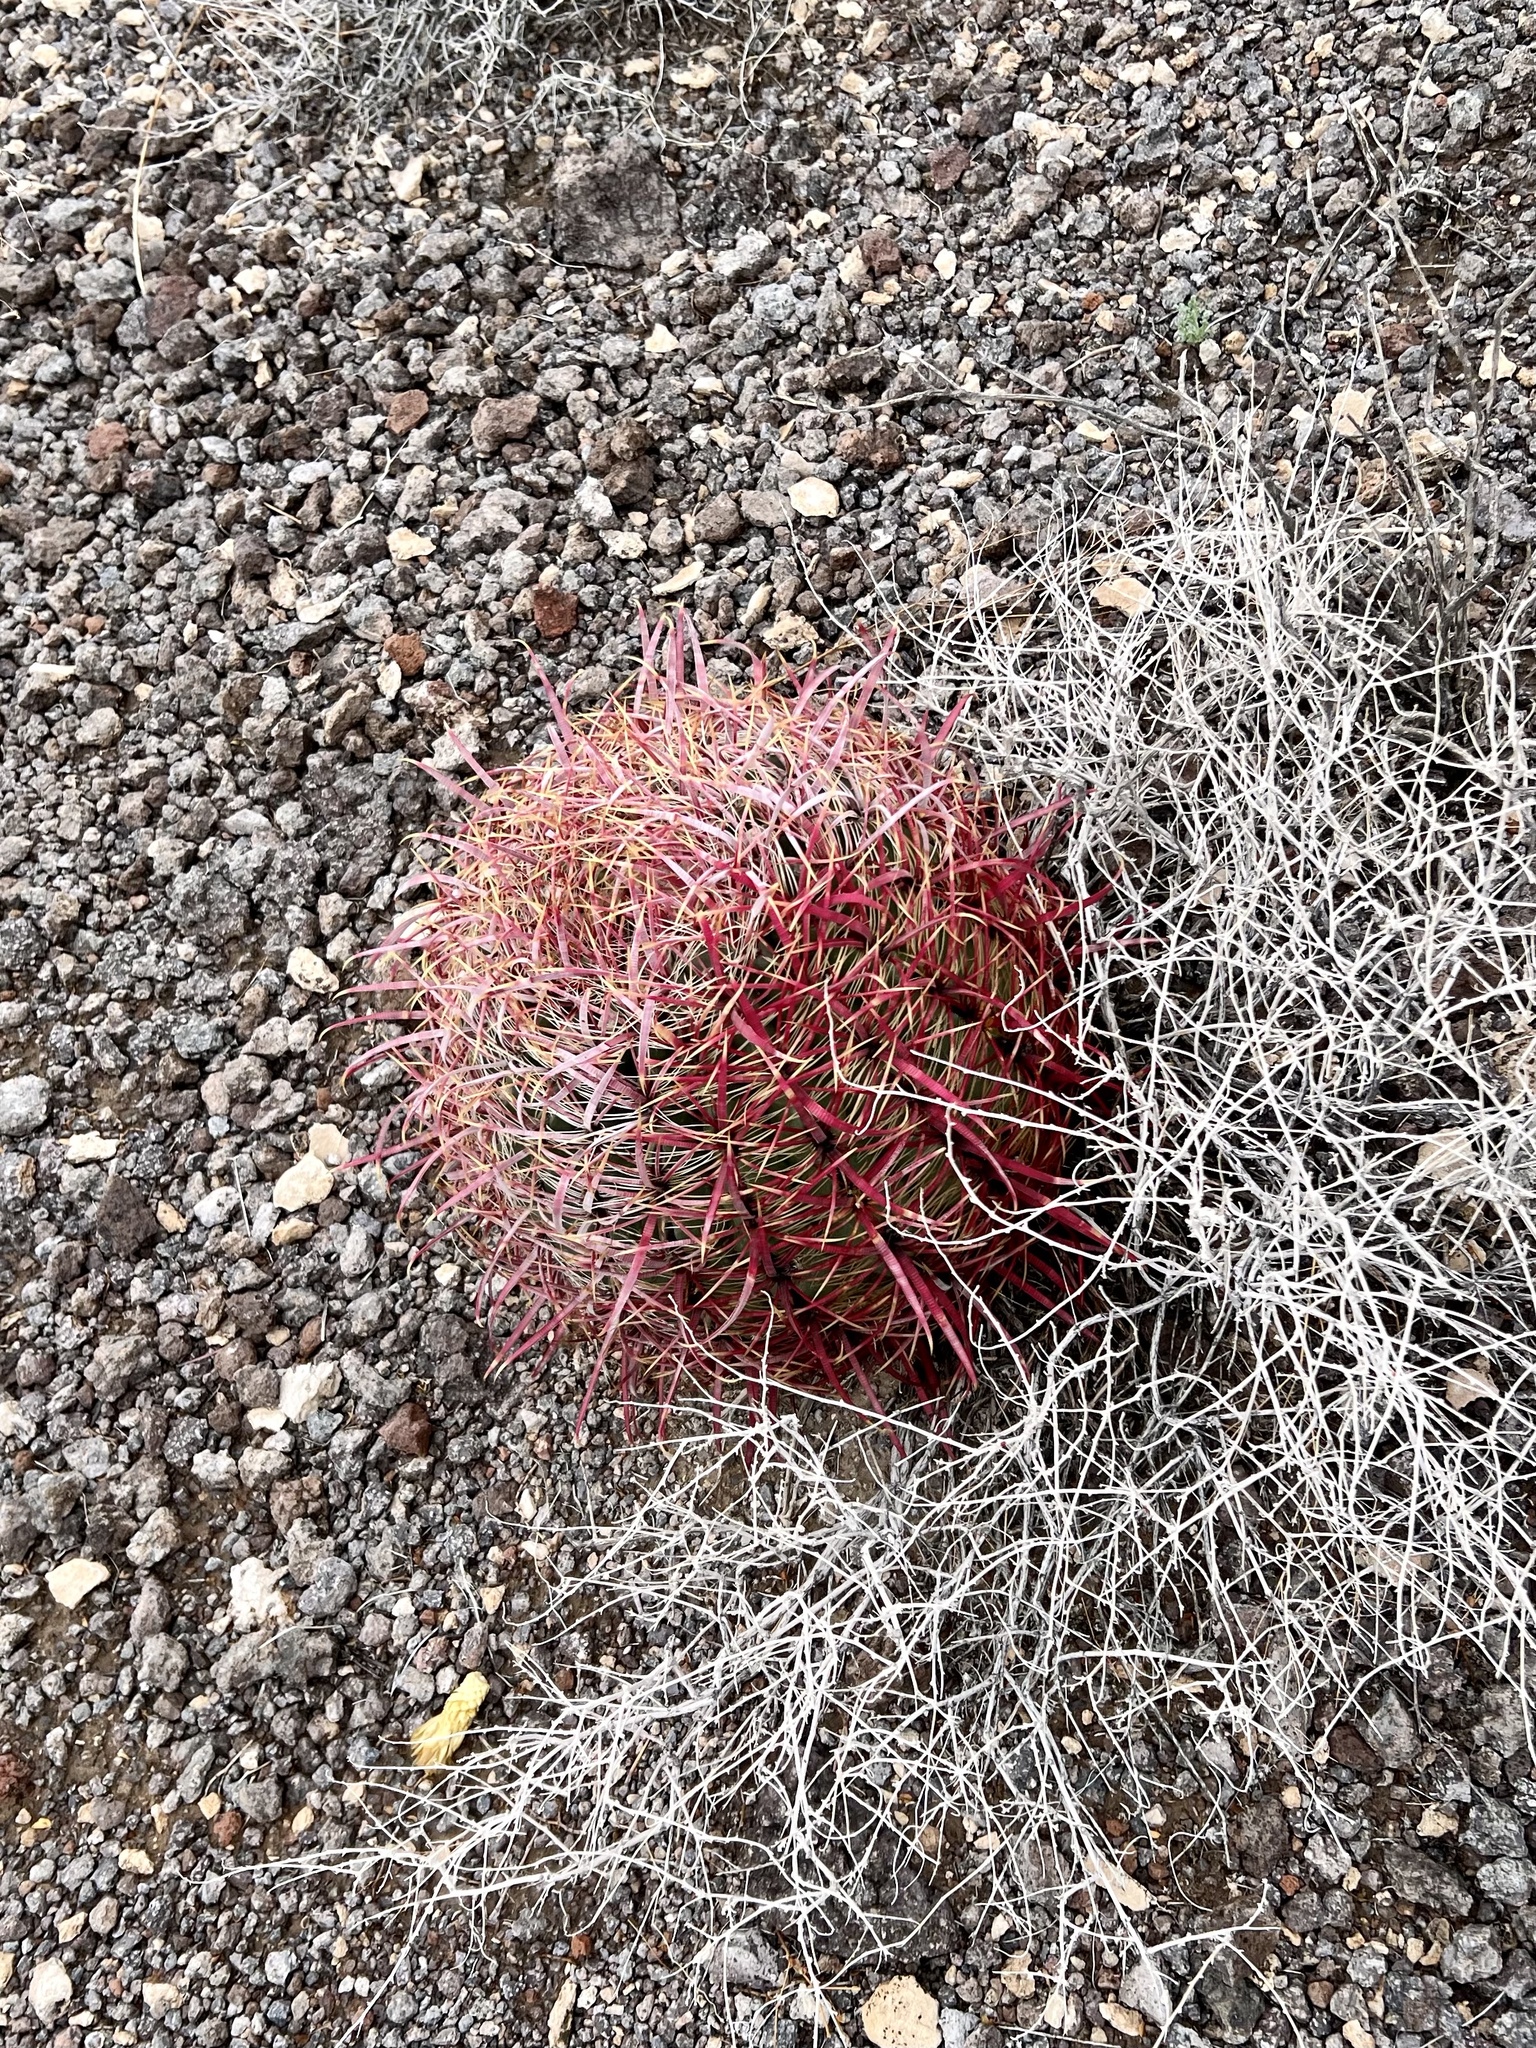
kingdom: Plantae
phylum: Tracheophyta
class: Magnoliopsida
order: Caryophyllales
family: Cactaceae
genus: Ferocactus
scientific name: Ferocactus cylindraceus
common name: California barrel cactus
